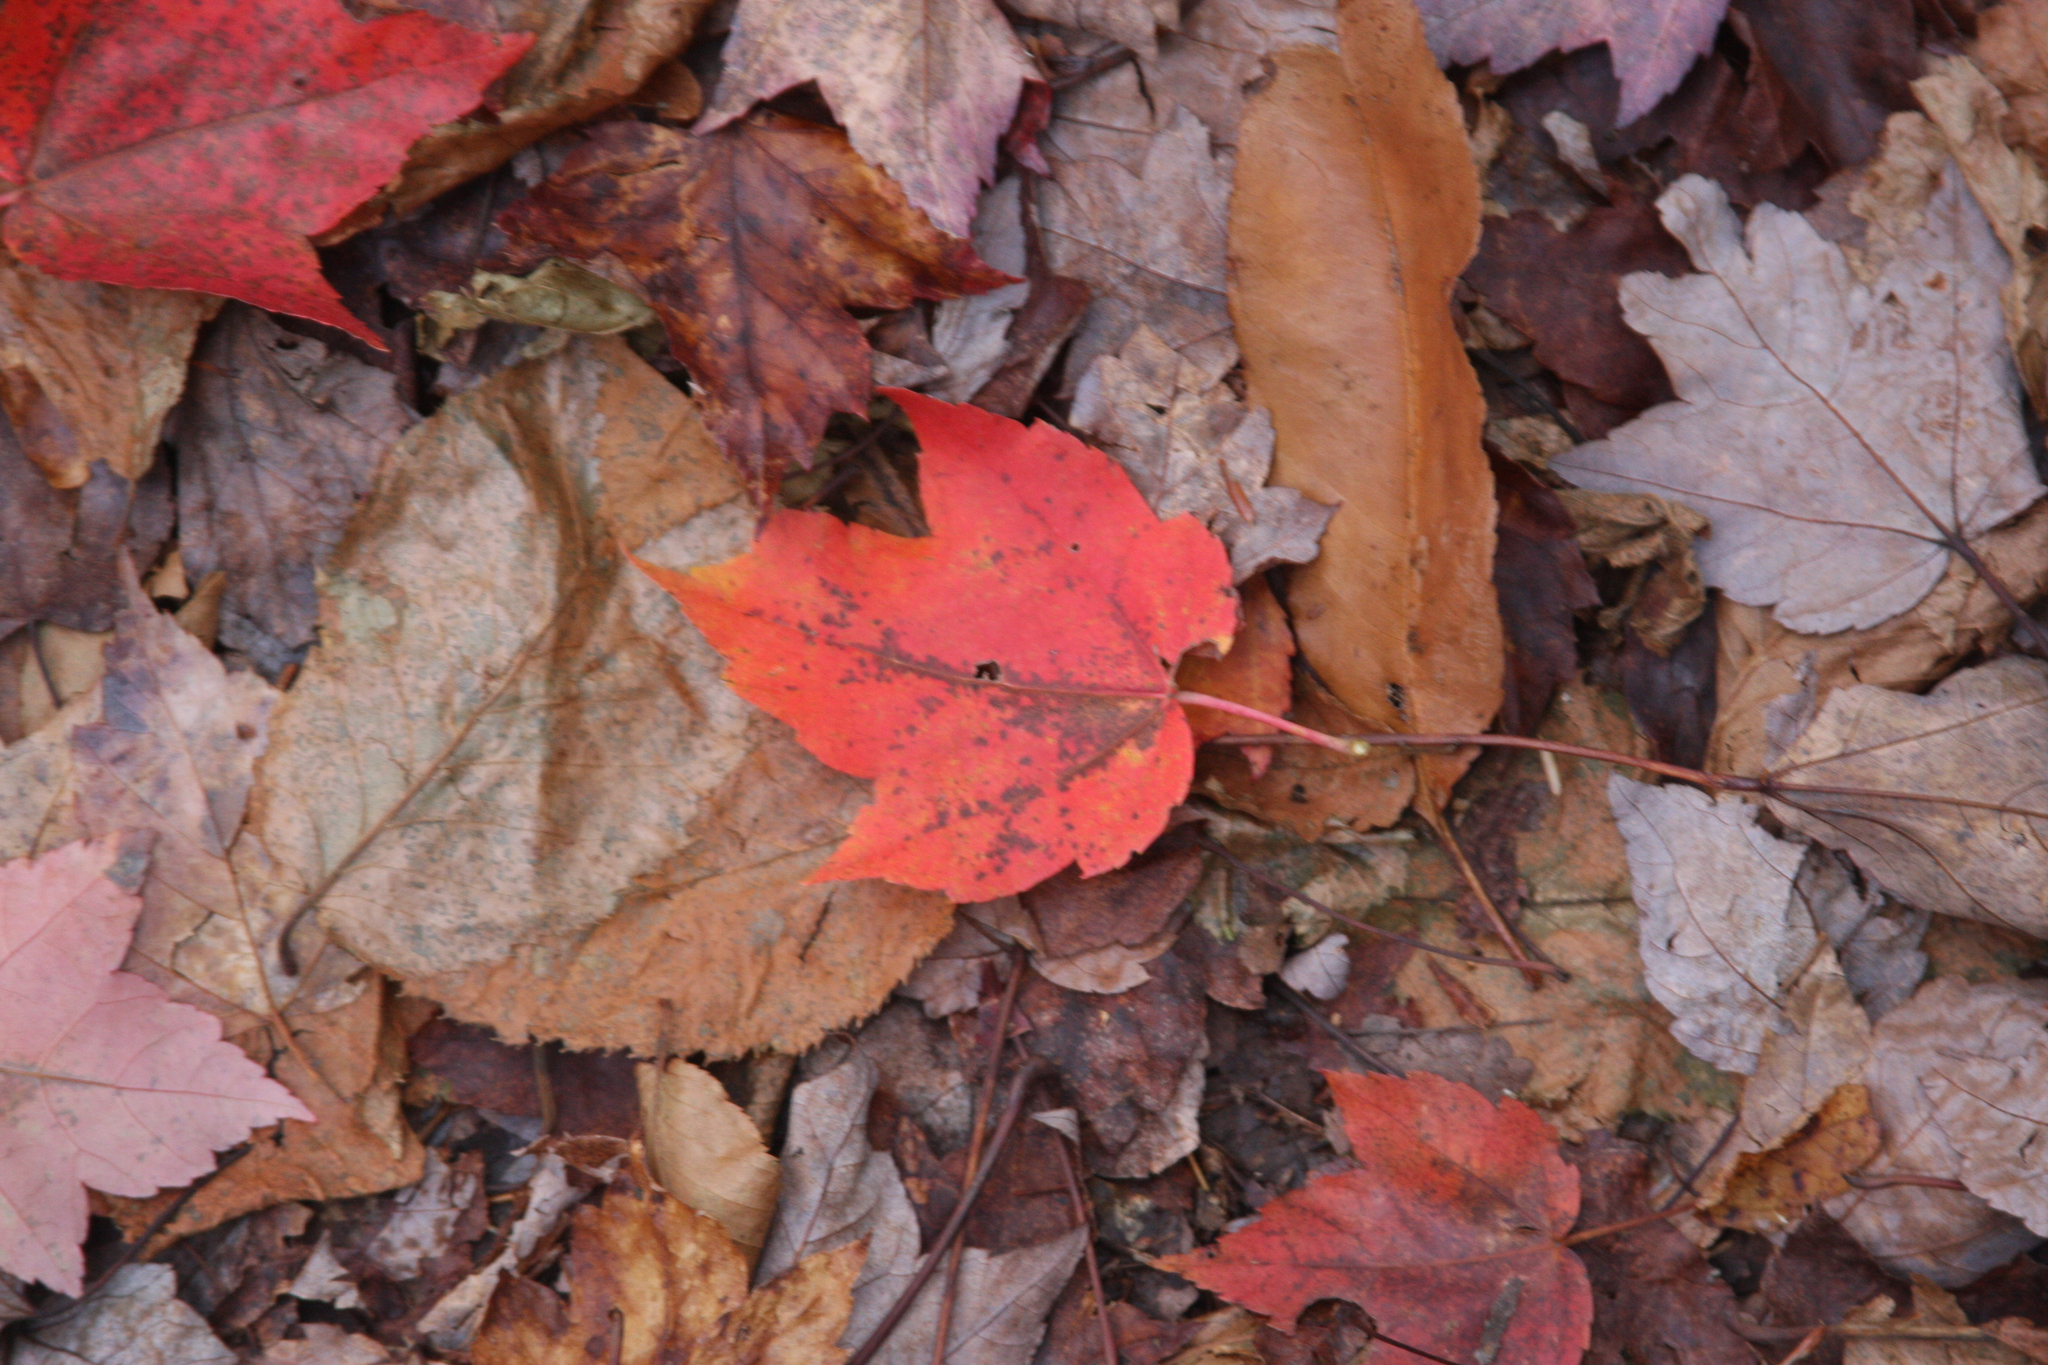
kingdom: Plantae
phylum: Tracheophyta
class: Magnoliopsida
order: Sapindales
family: Sapindaceae
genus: Acer
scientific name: Acer rubrum
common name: Red maple
